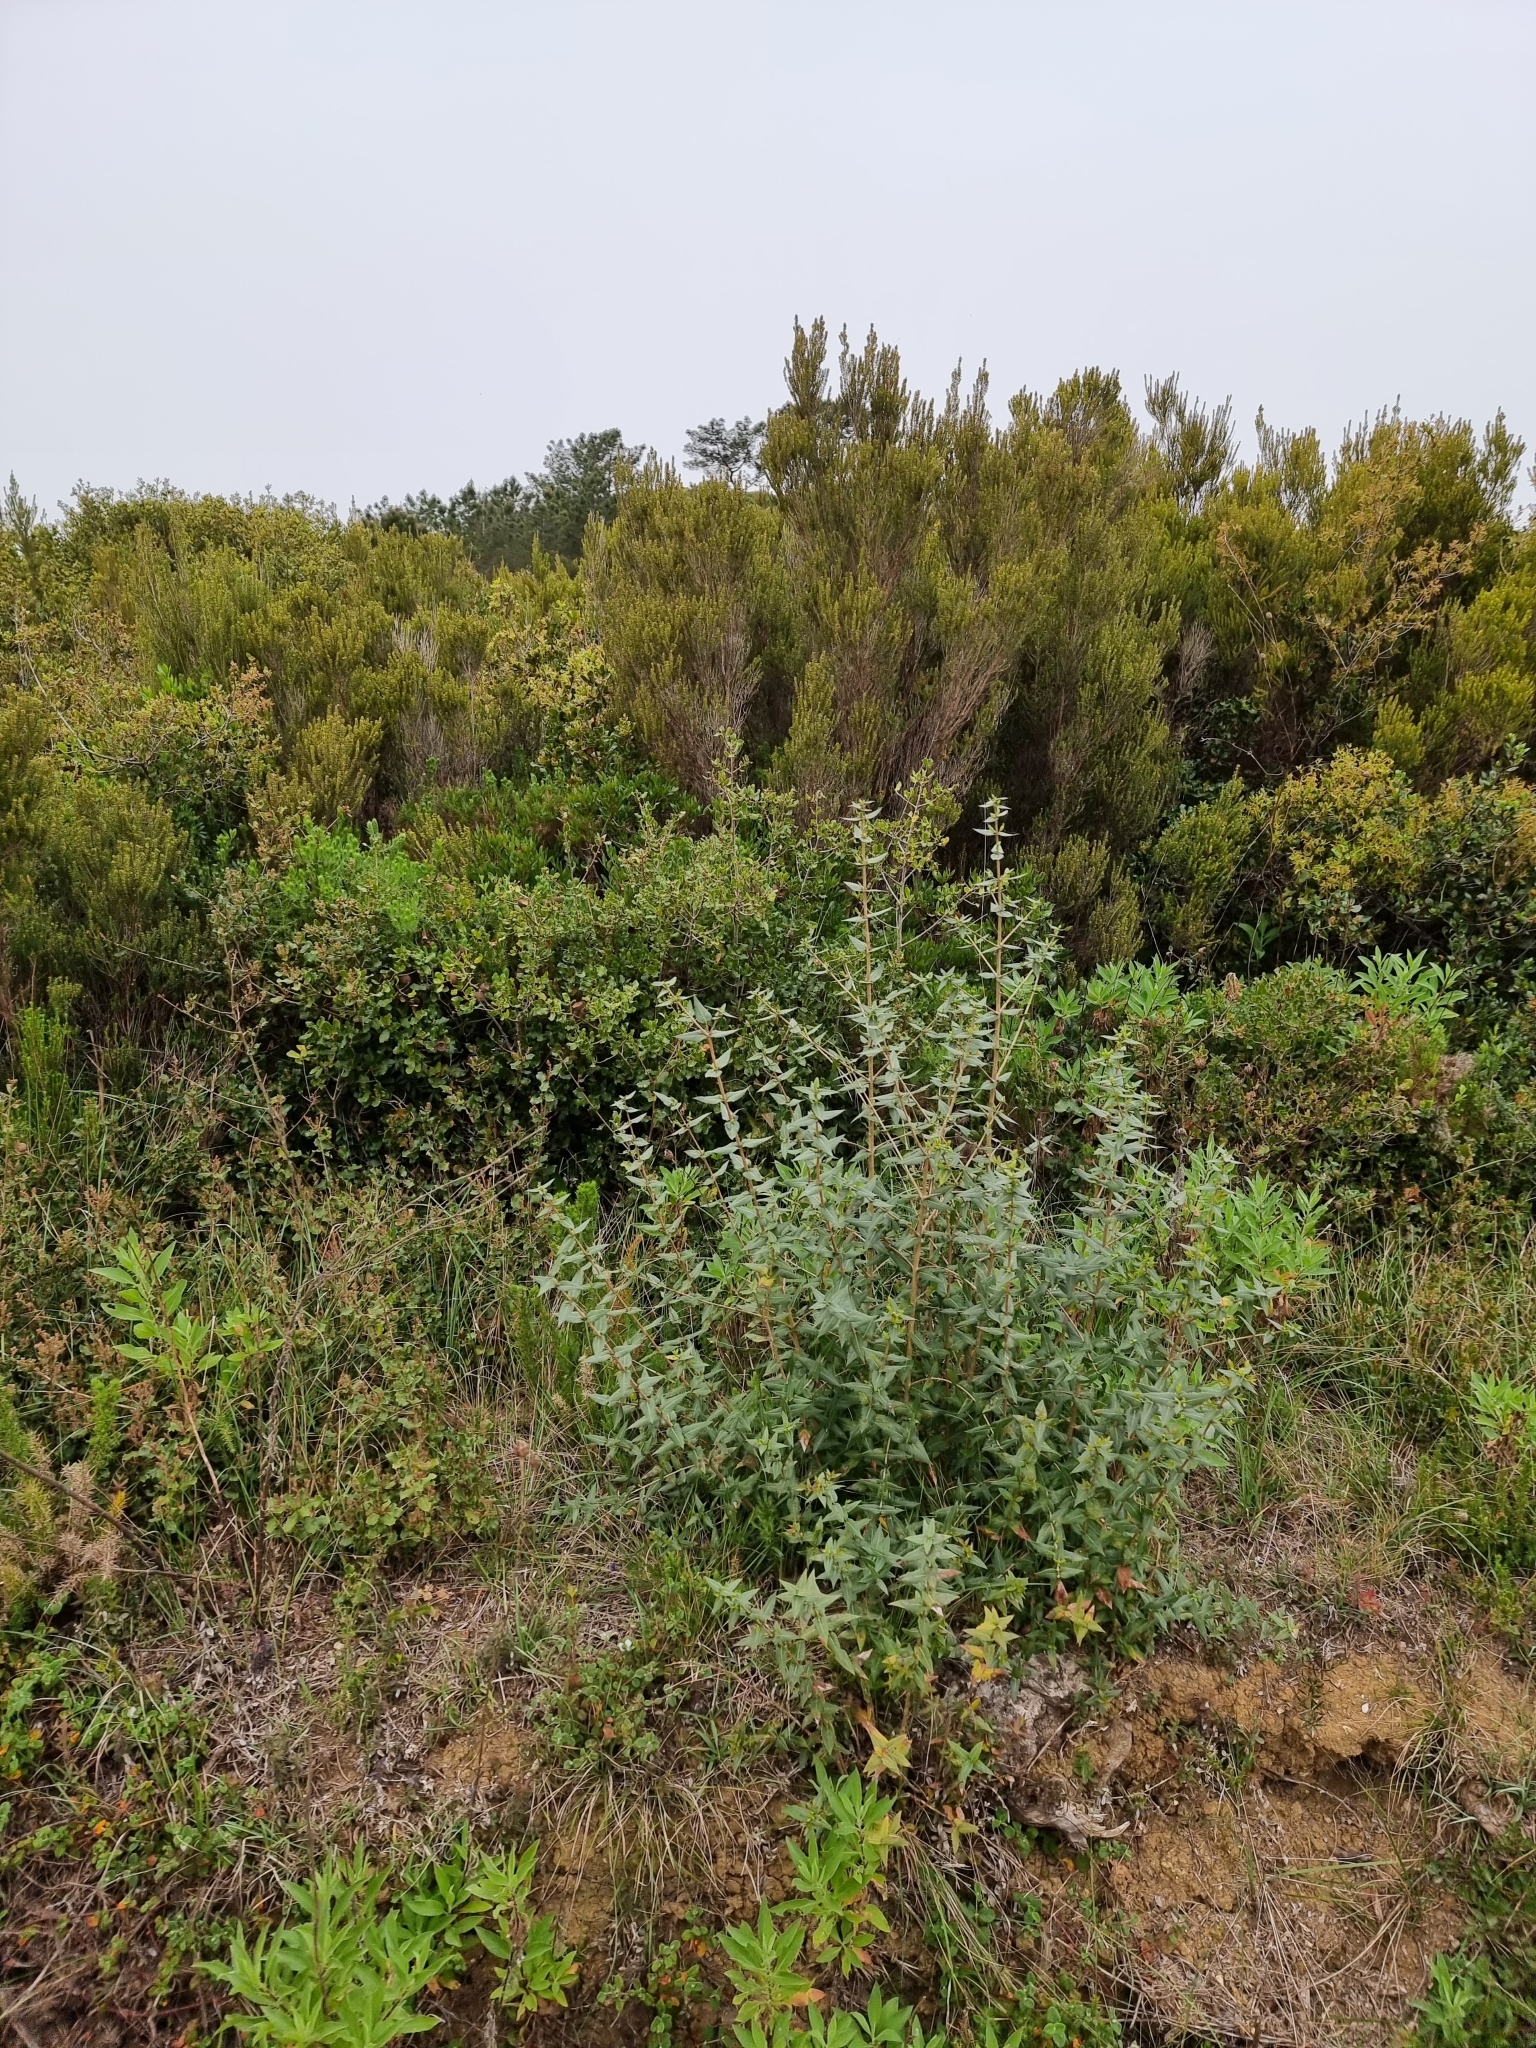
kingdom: Plantae
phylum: Tracheophyta
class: Magnoliopsida
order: Lamiales
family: Oleaceae
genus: Phillyrea
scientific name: Phillyrea latifolia
